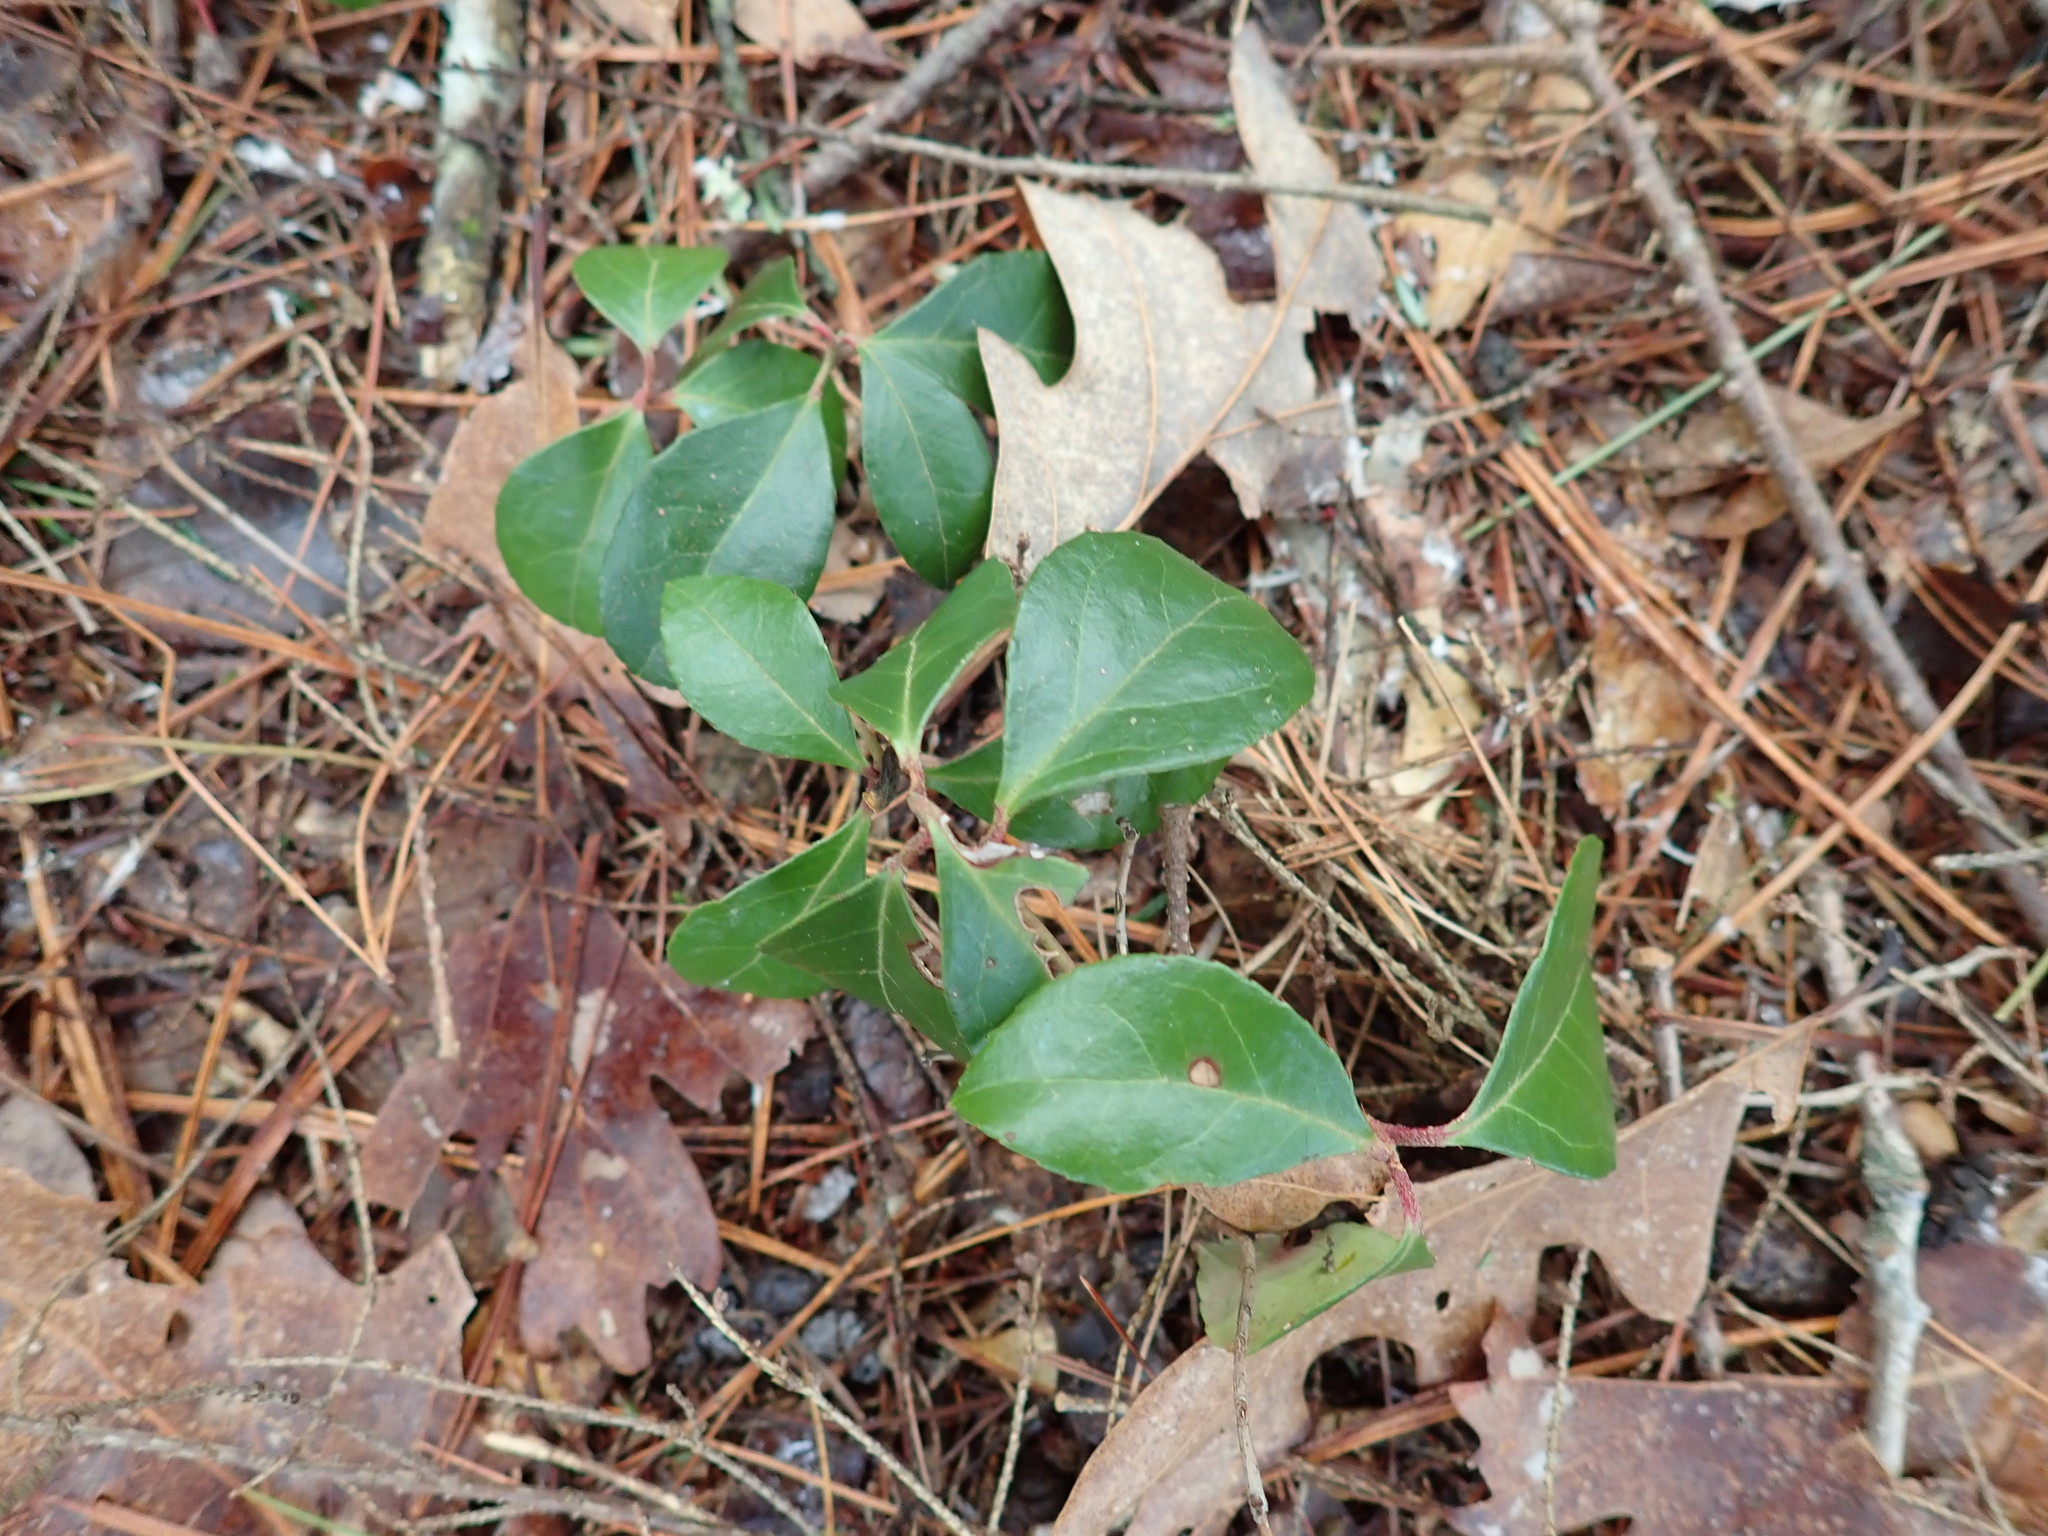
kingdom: Plantae
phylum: Tracheophyta
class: Magnoliopsida
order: Ericales
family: Ericaceae
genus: Gaultheria
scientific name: Gaultheria procumbens
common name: Checkerberry
